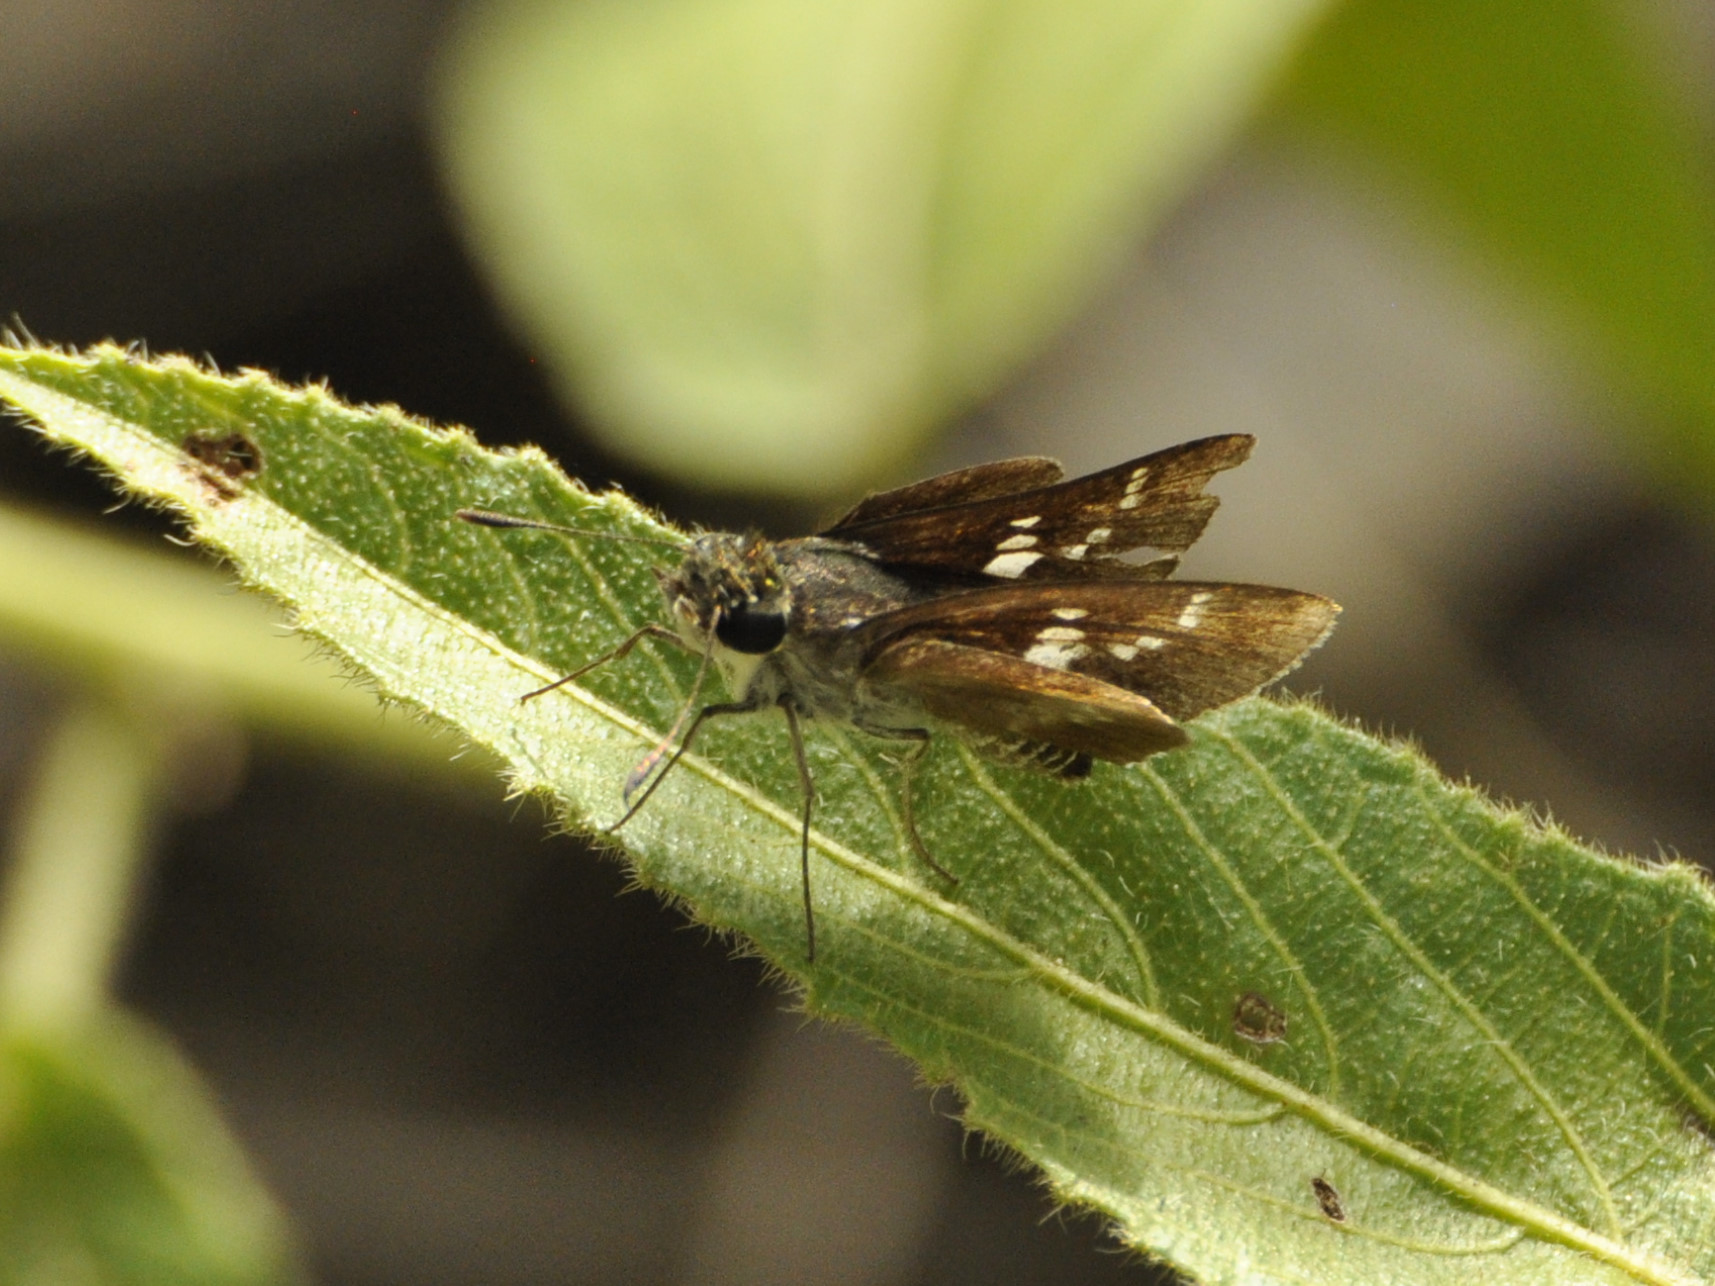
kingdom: Animalia
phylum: Arthropoda
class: Insecta
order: Lepidoptera
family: Hesperiidae
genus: Platylesches
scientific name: Platylesches moritili
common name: Honey hopper
